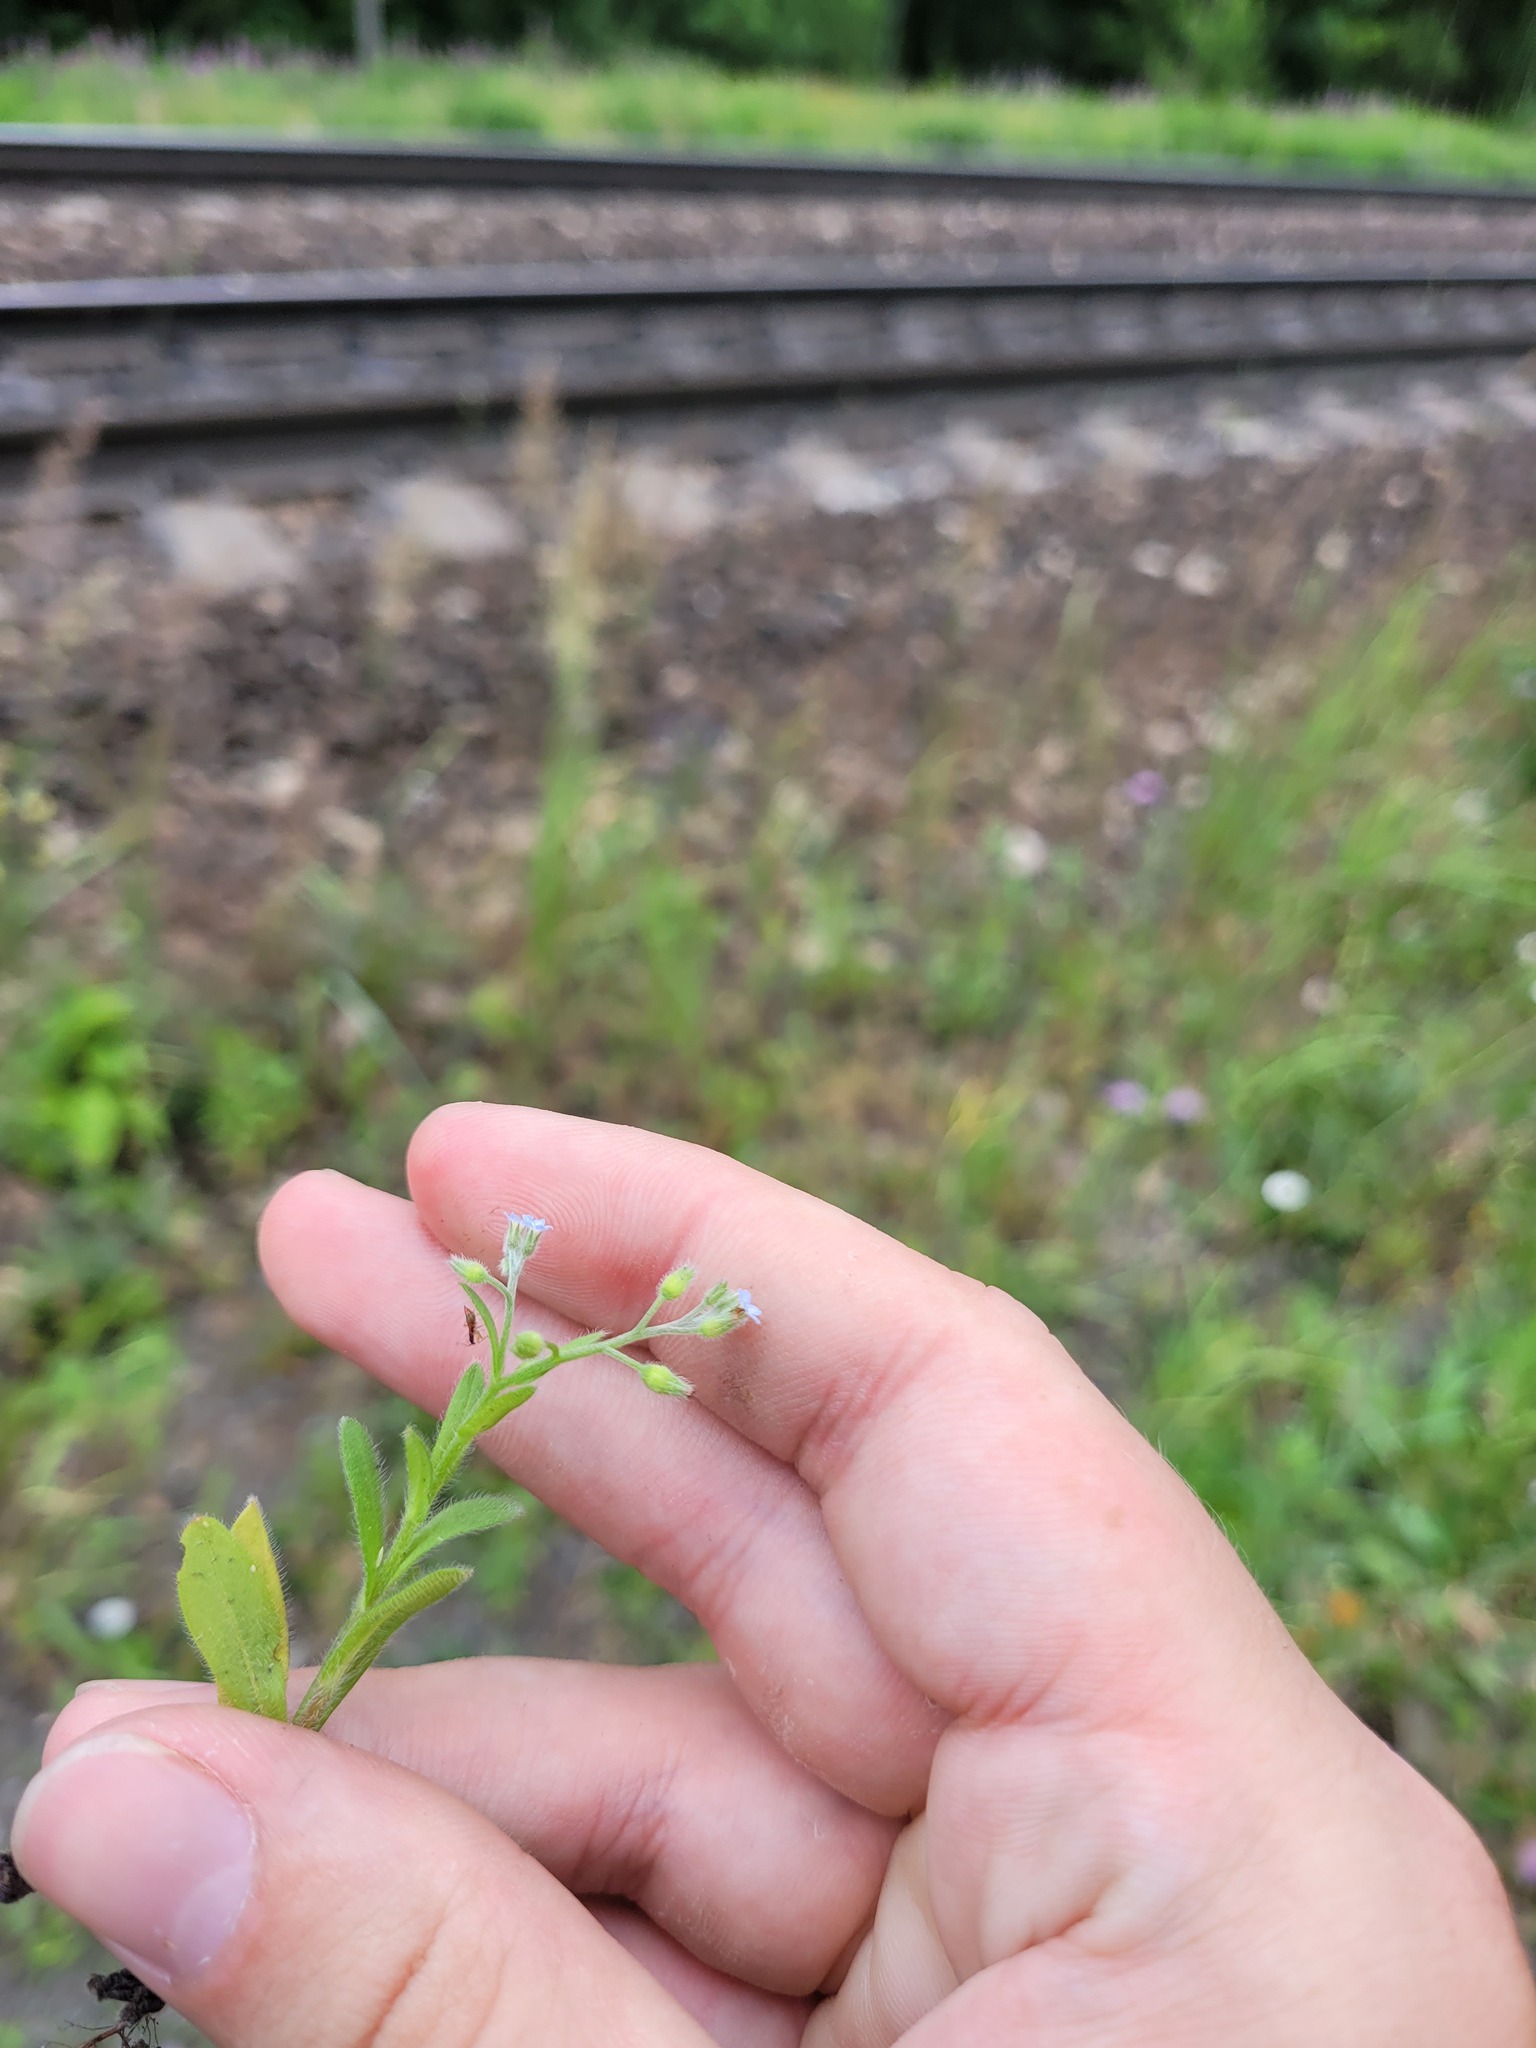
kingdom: Plantae
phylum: Tracheophyta
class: Magnoliopsida
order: Boraginales
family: Boraginaceae
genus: Myosotis
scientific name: Myosotis arvensis
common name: Field forget-me-not
